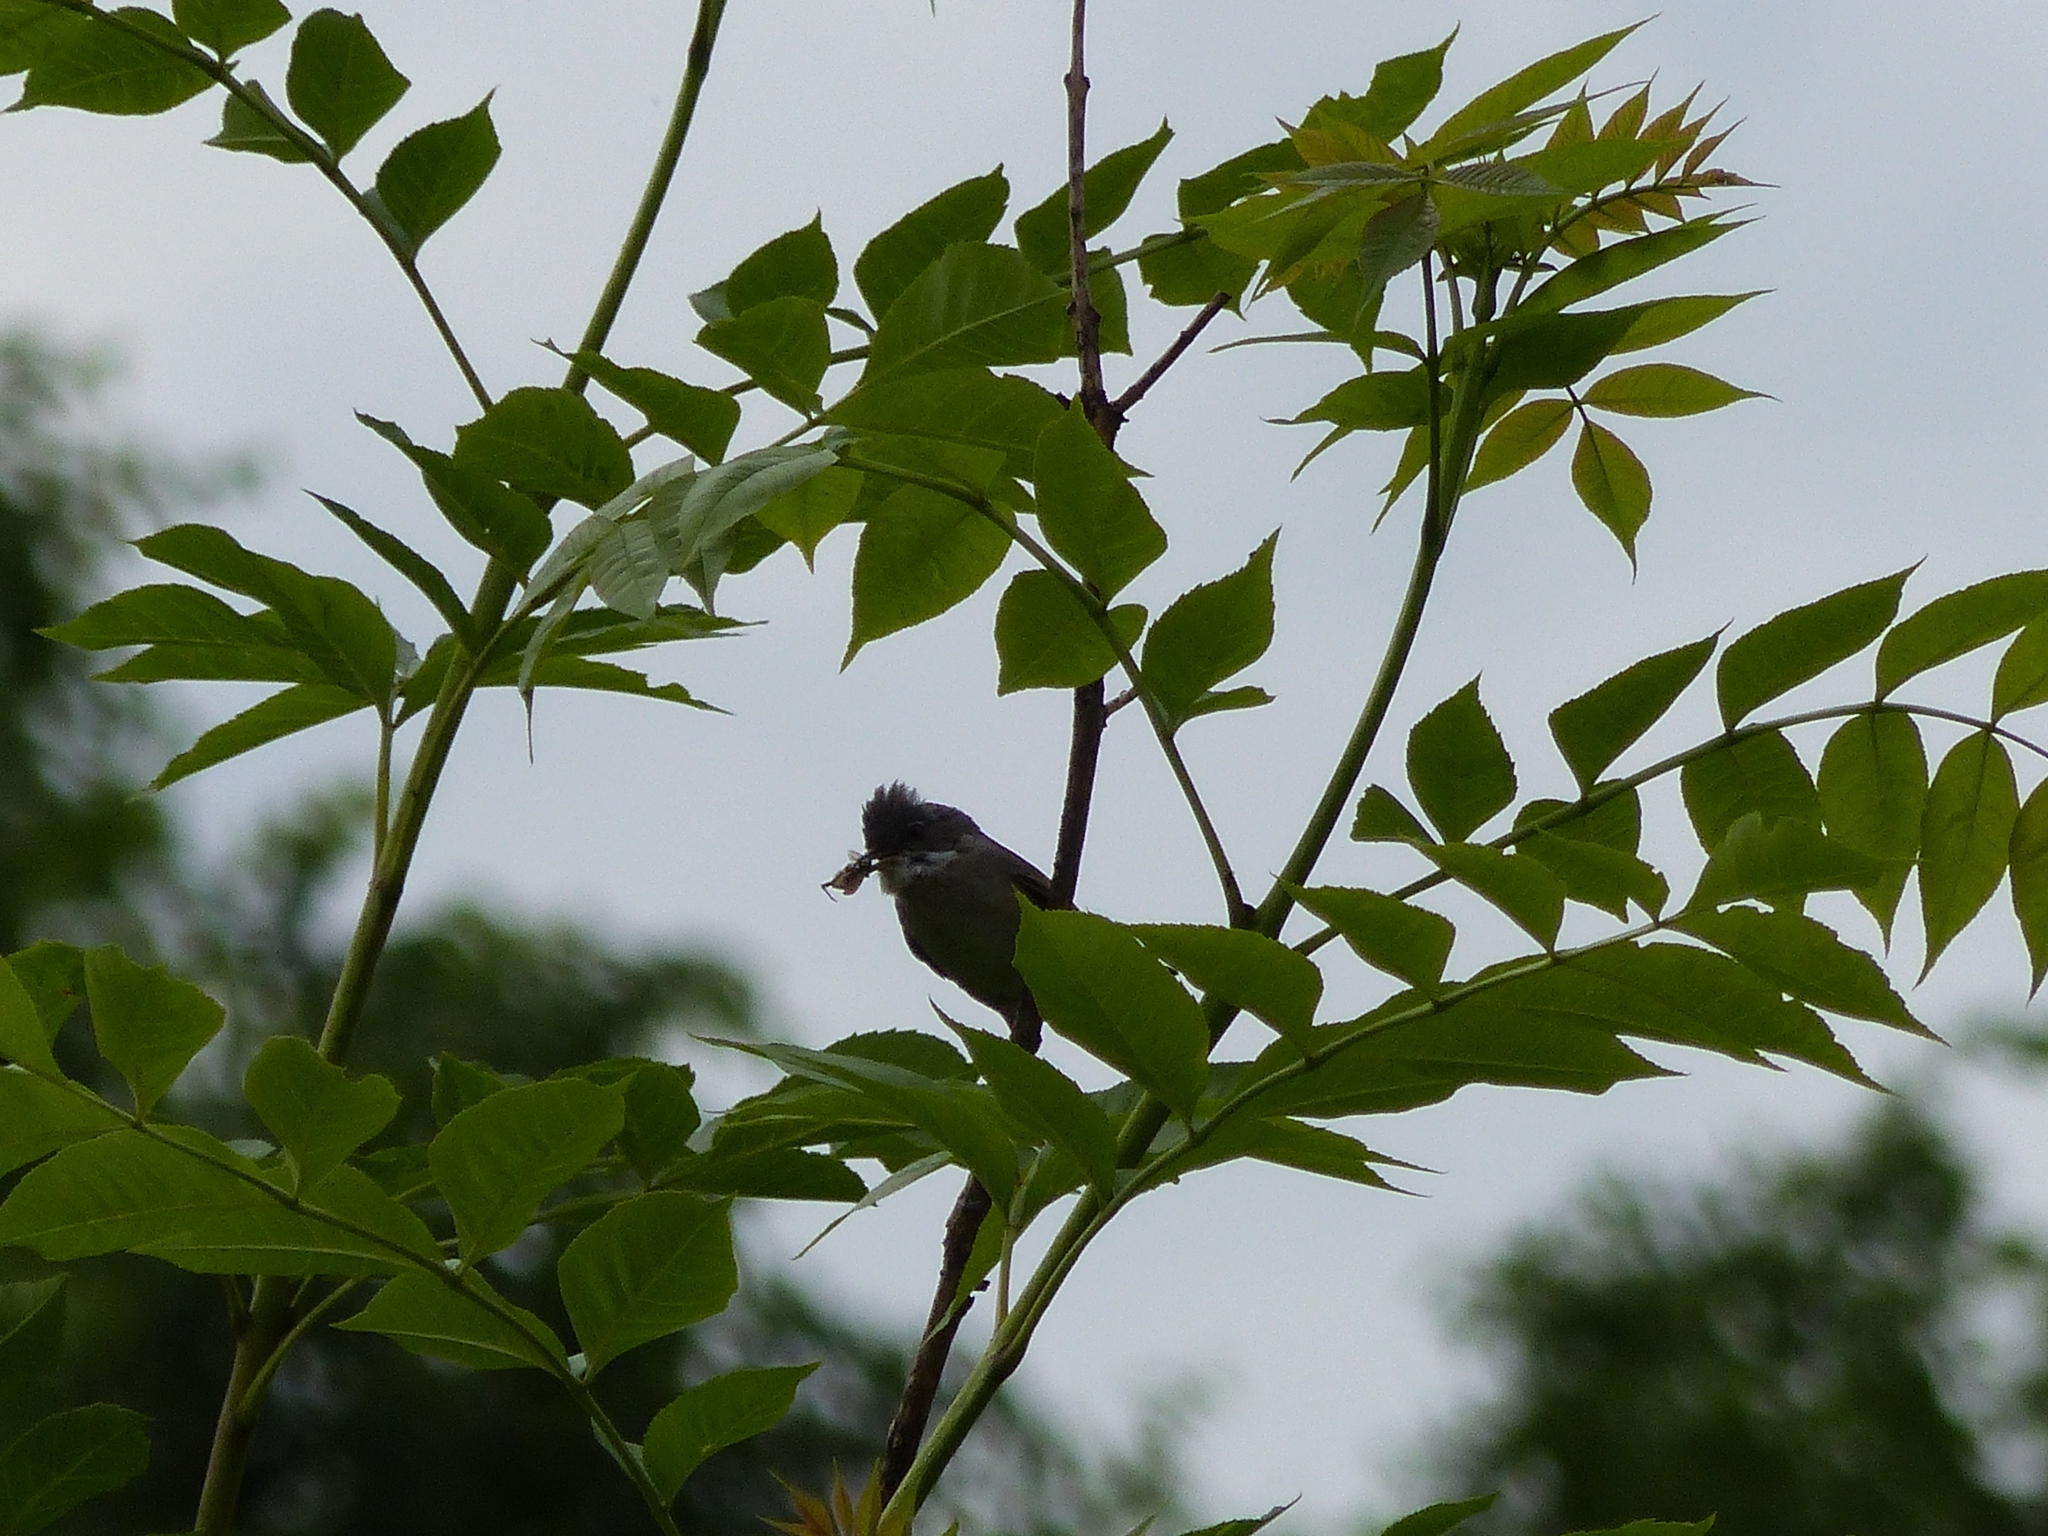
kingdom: Animalia
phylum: Chordata
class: Aves
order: Passeriformes
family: Sylviidae
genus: Sylvia
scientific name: Sylvia communis
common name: Common whitethroat
